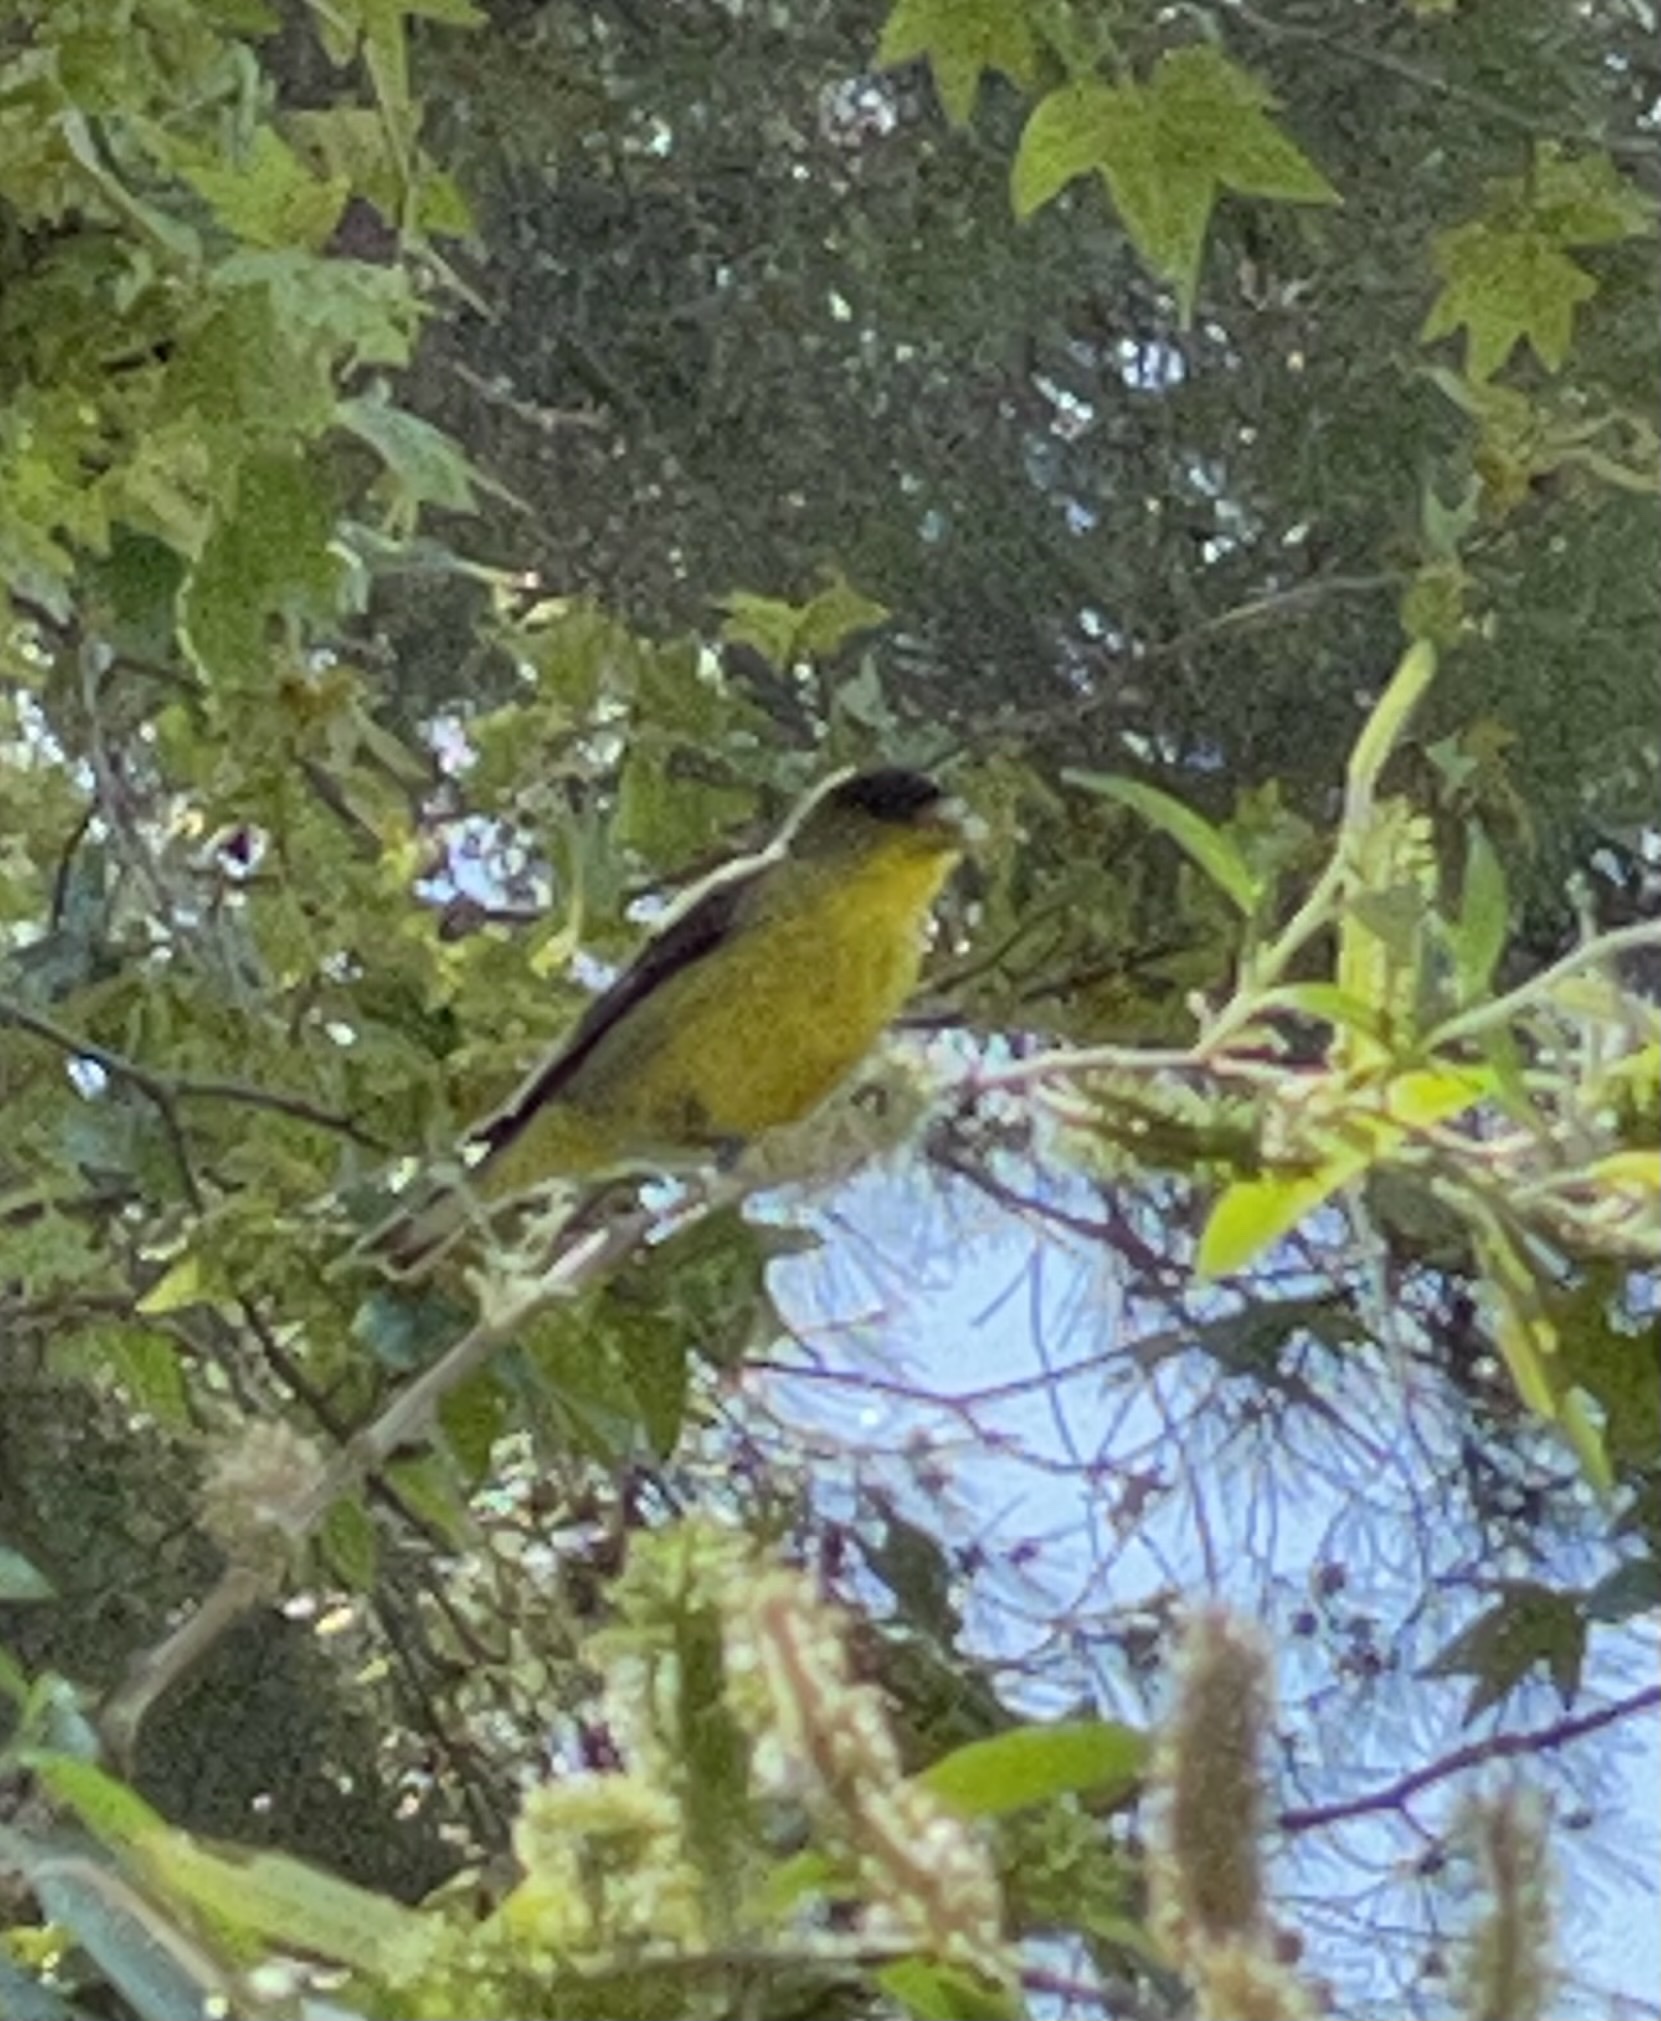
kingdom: Animalia
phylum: Chordata
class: Aves
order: Passeriformes
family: Fringillidae
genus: Spinus
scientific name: Spinus psaltria
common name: Lesser goldfinch
